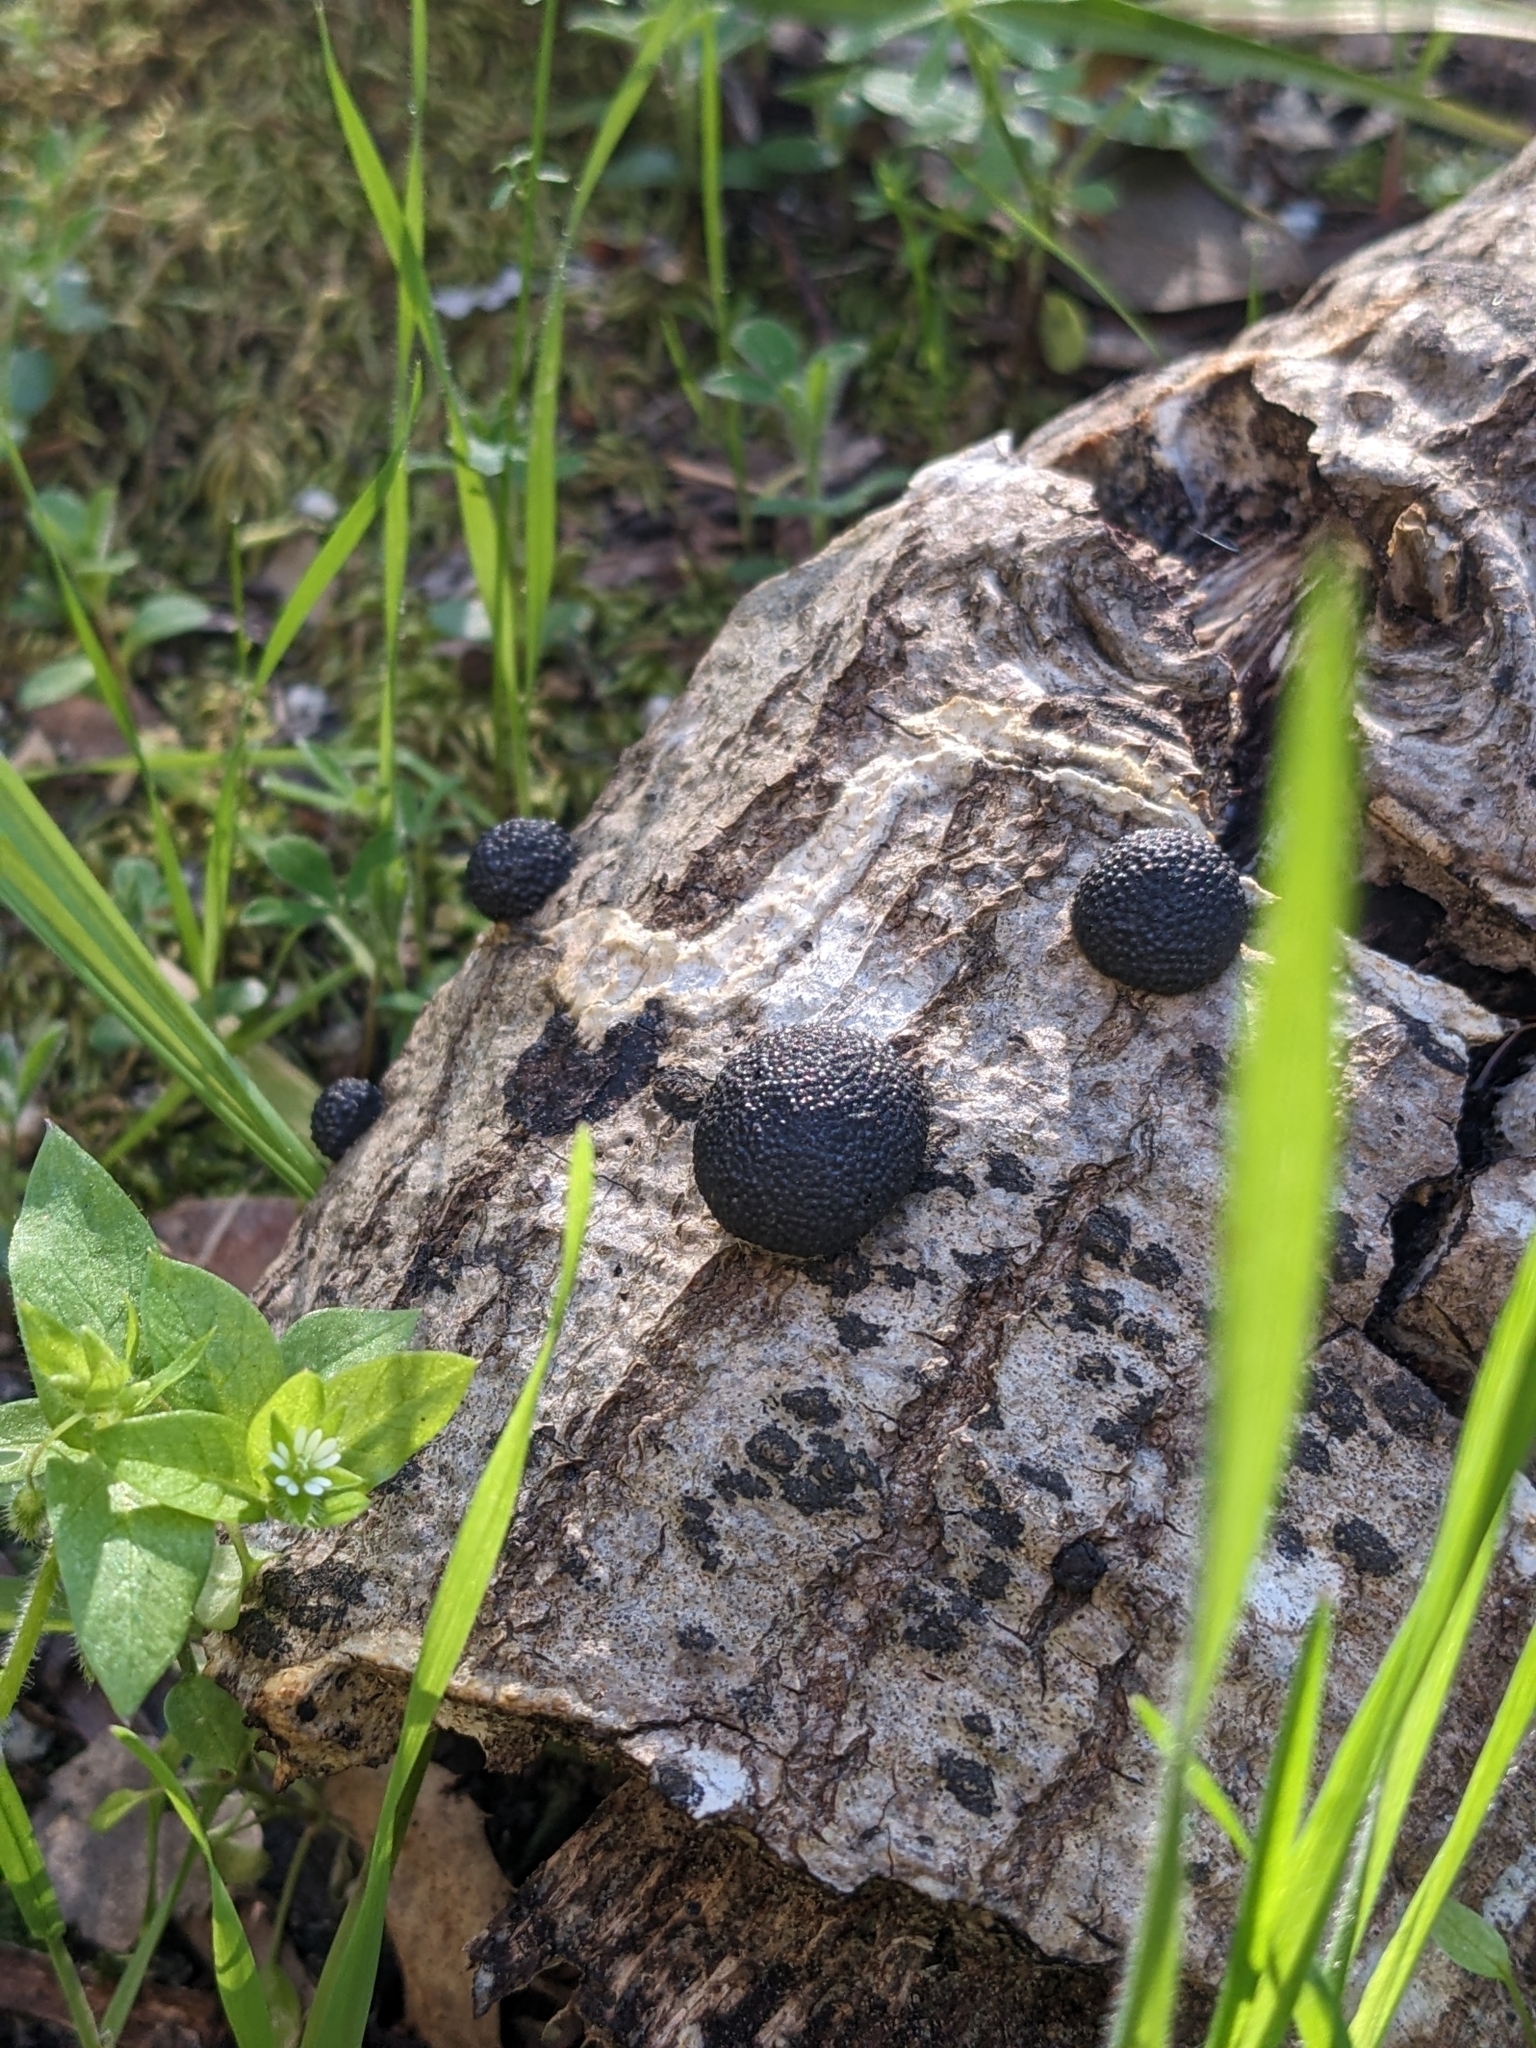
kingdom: Fungi
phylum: Ascomycota
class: Sordariomycetes
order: Xylariales
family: Hypoxylaceae
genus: Annulohypoxylon
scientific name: Annulohypoxylon thouarsianum
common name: Cramp balls
